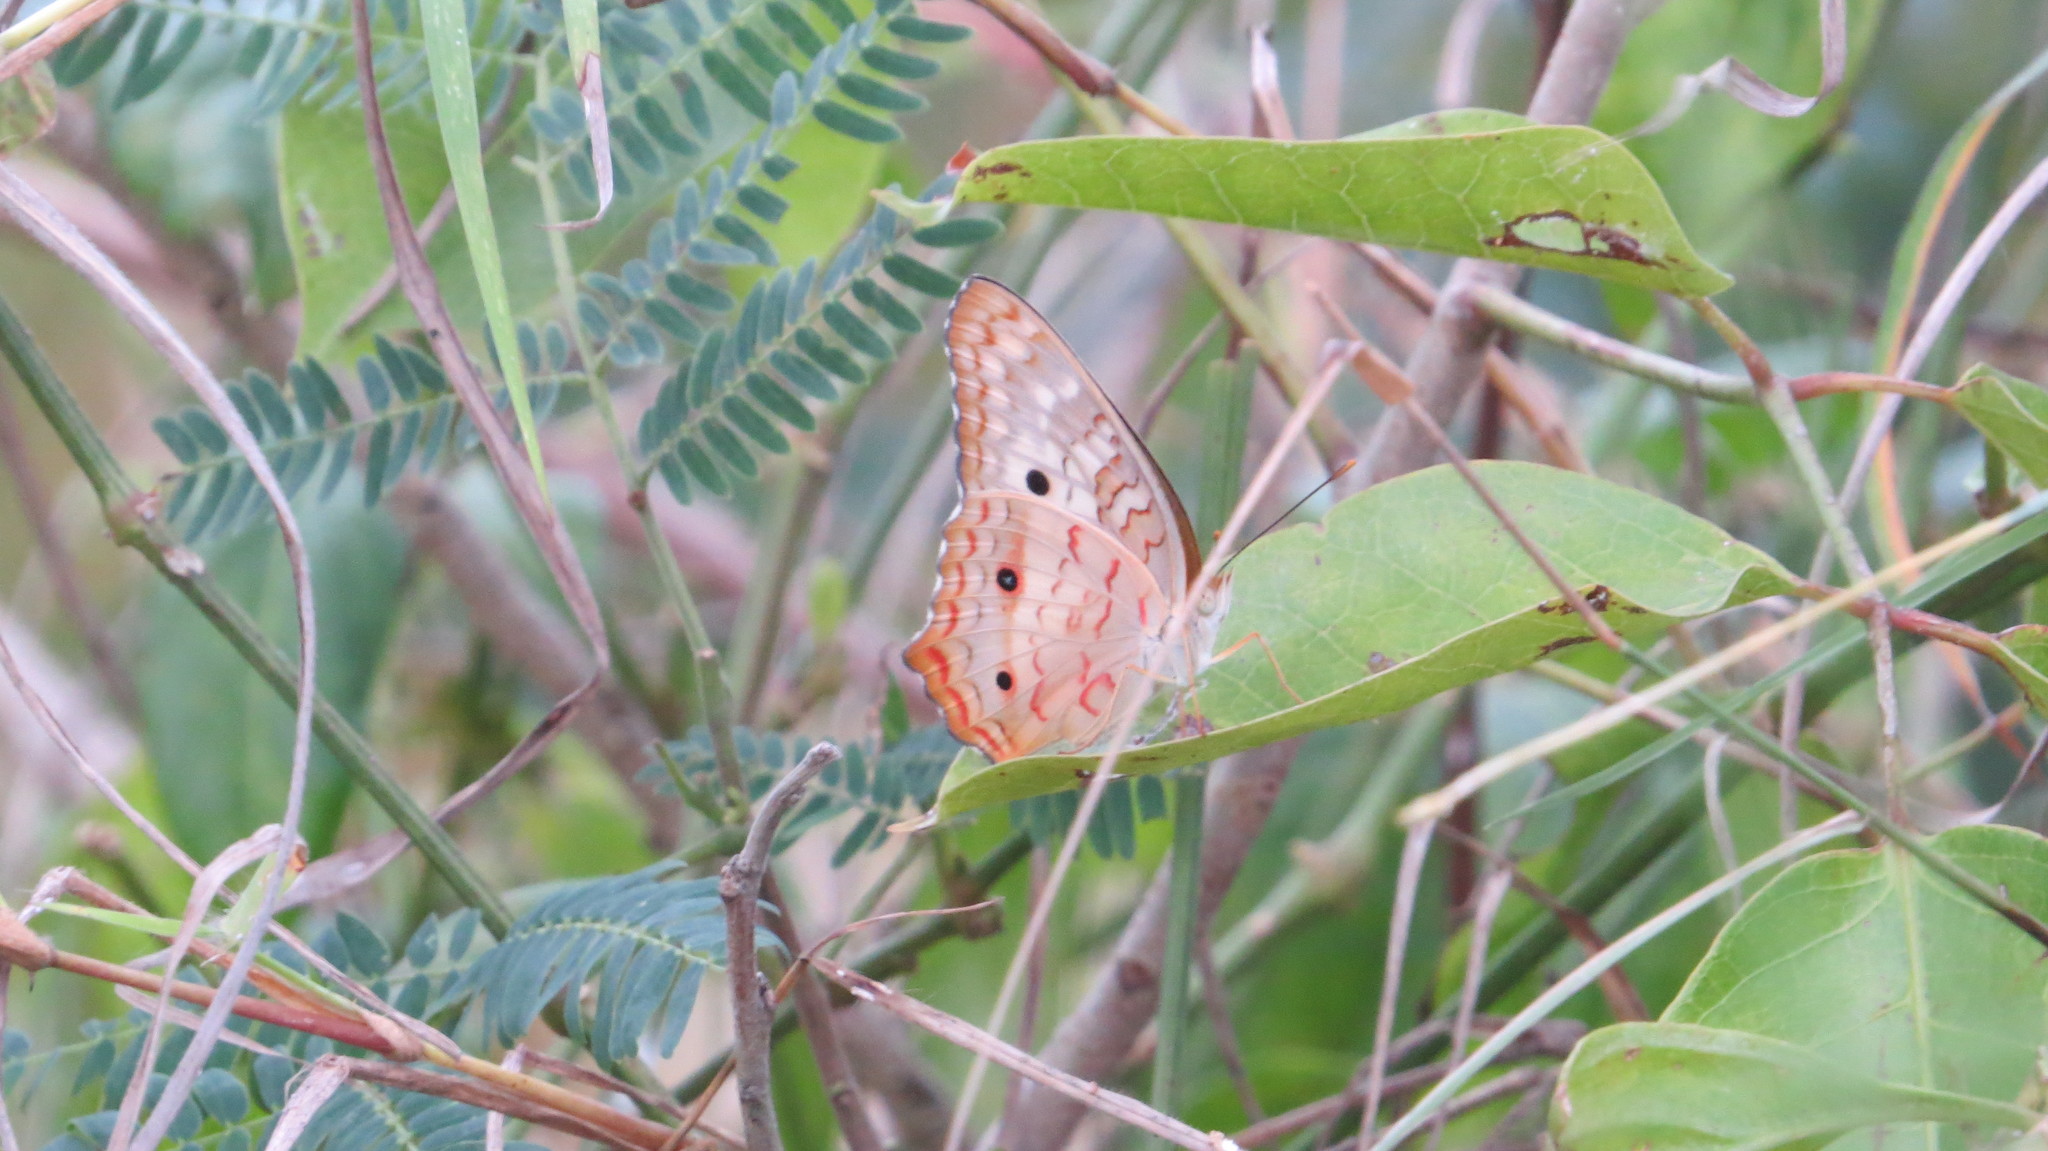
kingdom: Animalia
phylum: Arthropoda
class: Insecta
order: Lepidoptera
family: Nymphalidae
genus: Anartia
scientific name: Anartia jatrophae
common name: White peacock
